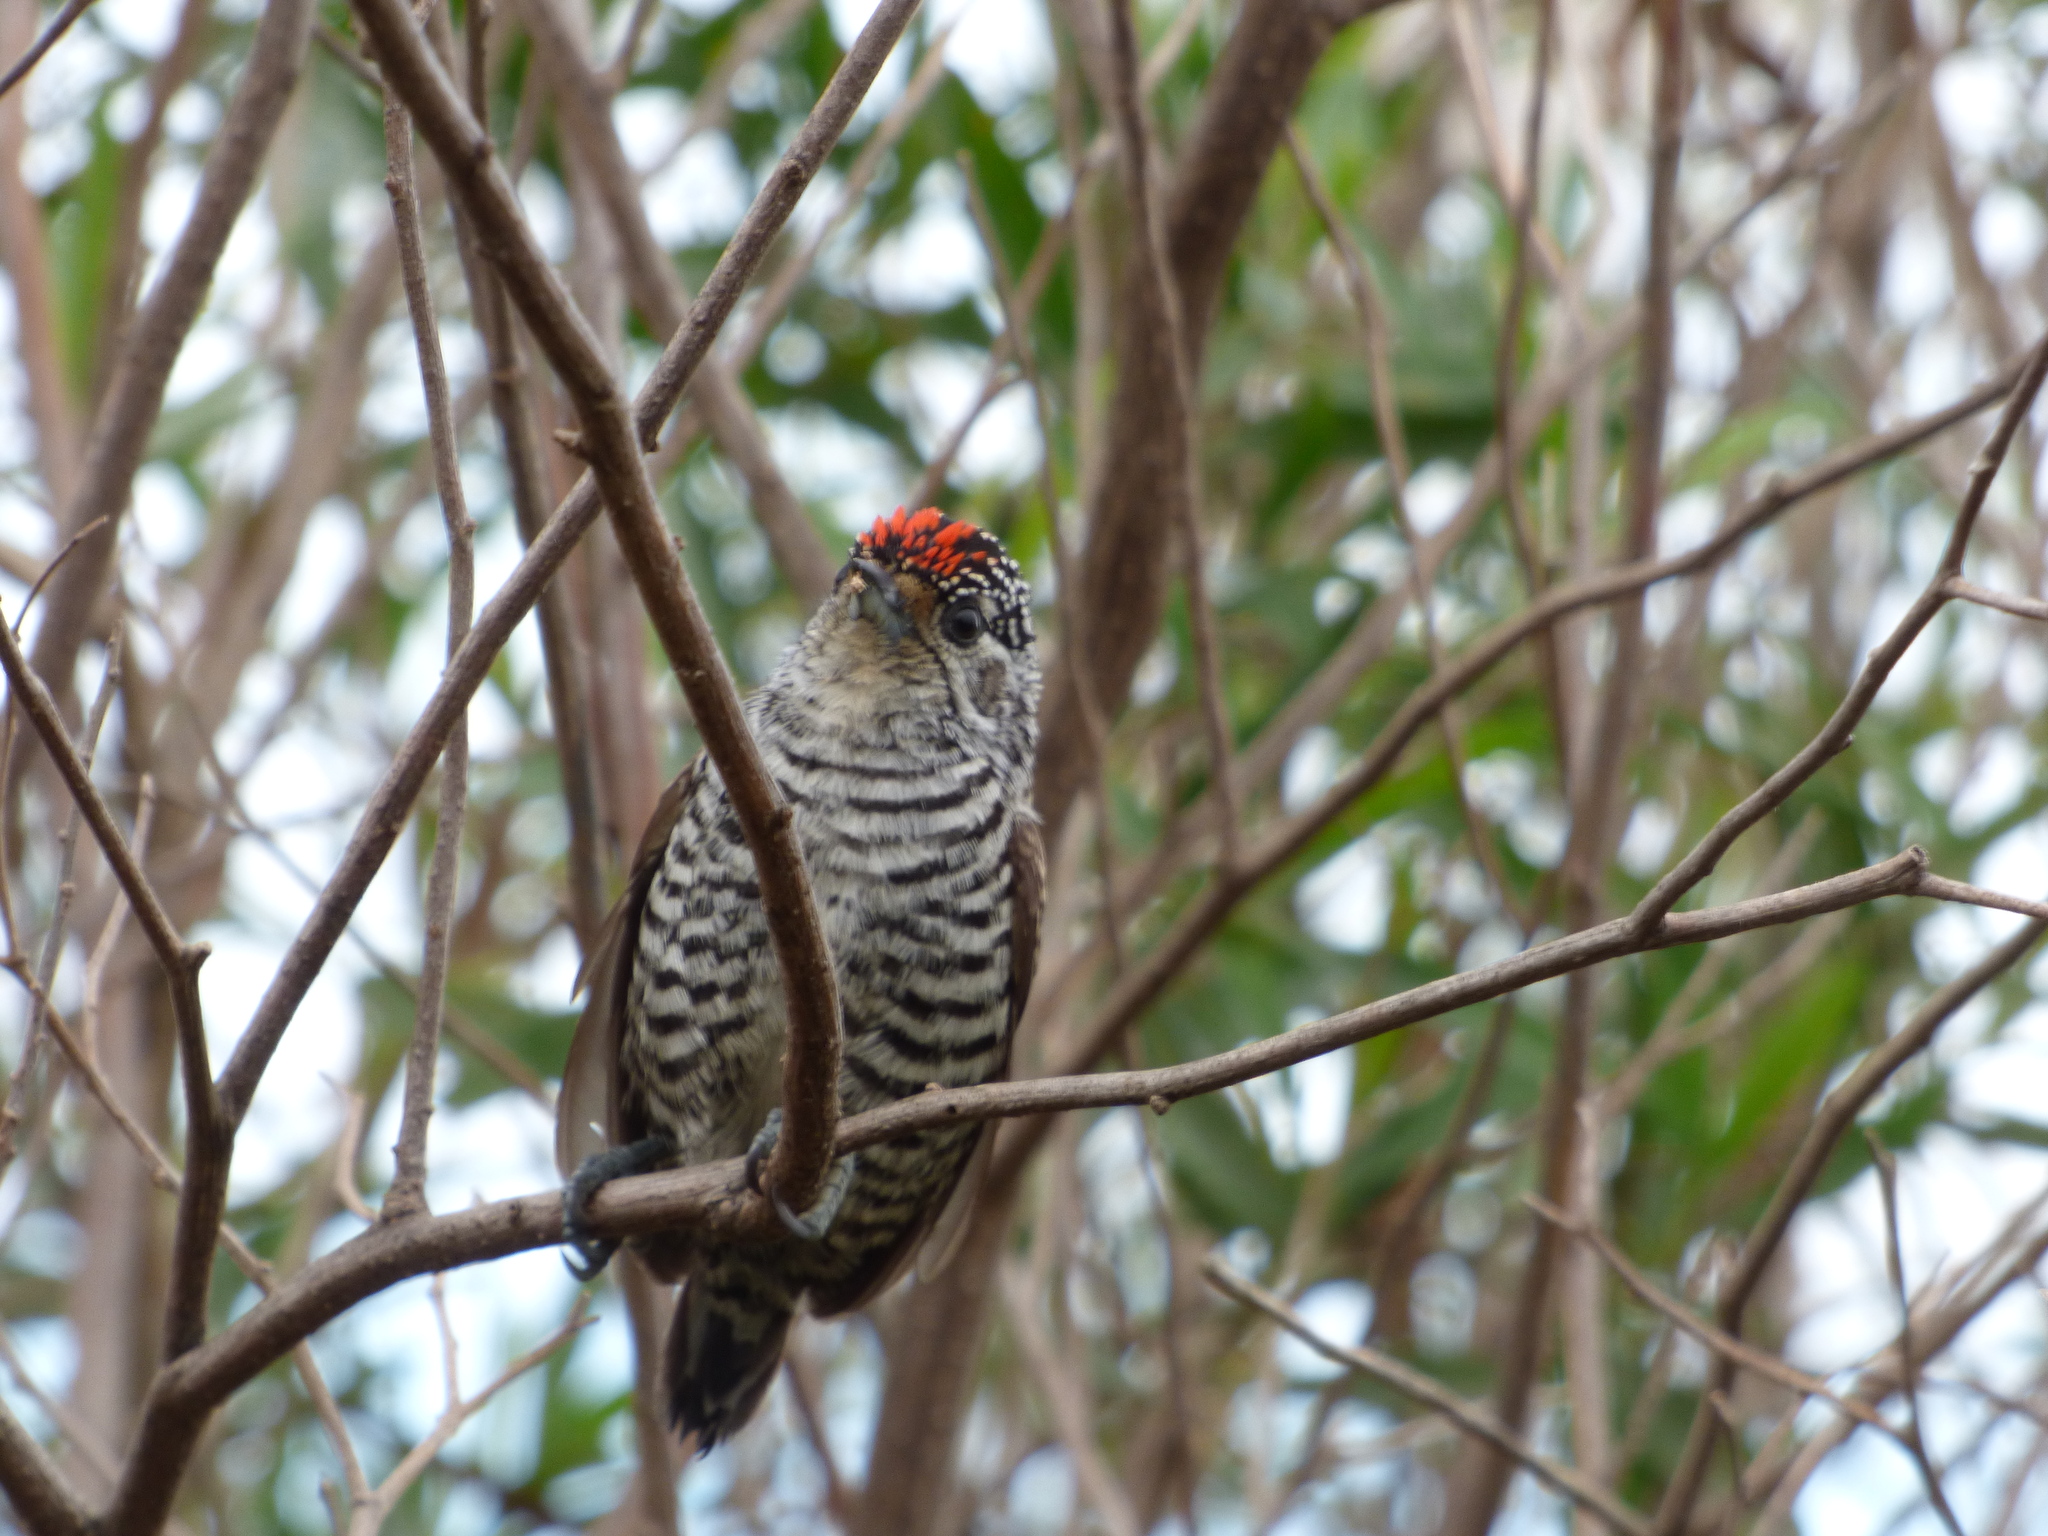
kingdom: Animalia
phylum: Chordata
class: Aves
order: Piciformes
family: Picidae
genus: Picumnus
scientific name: Picumnus cirratus
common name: White-barred piculet
